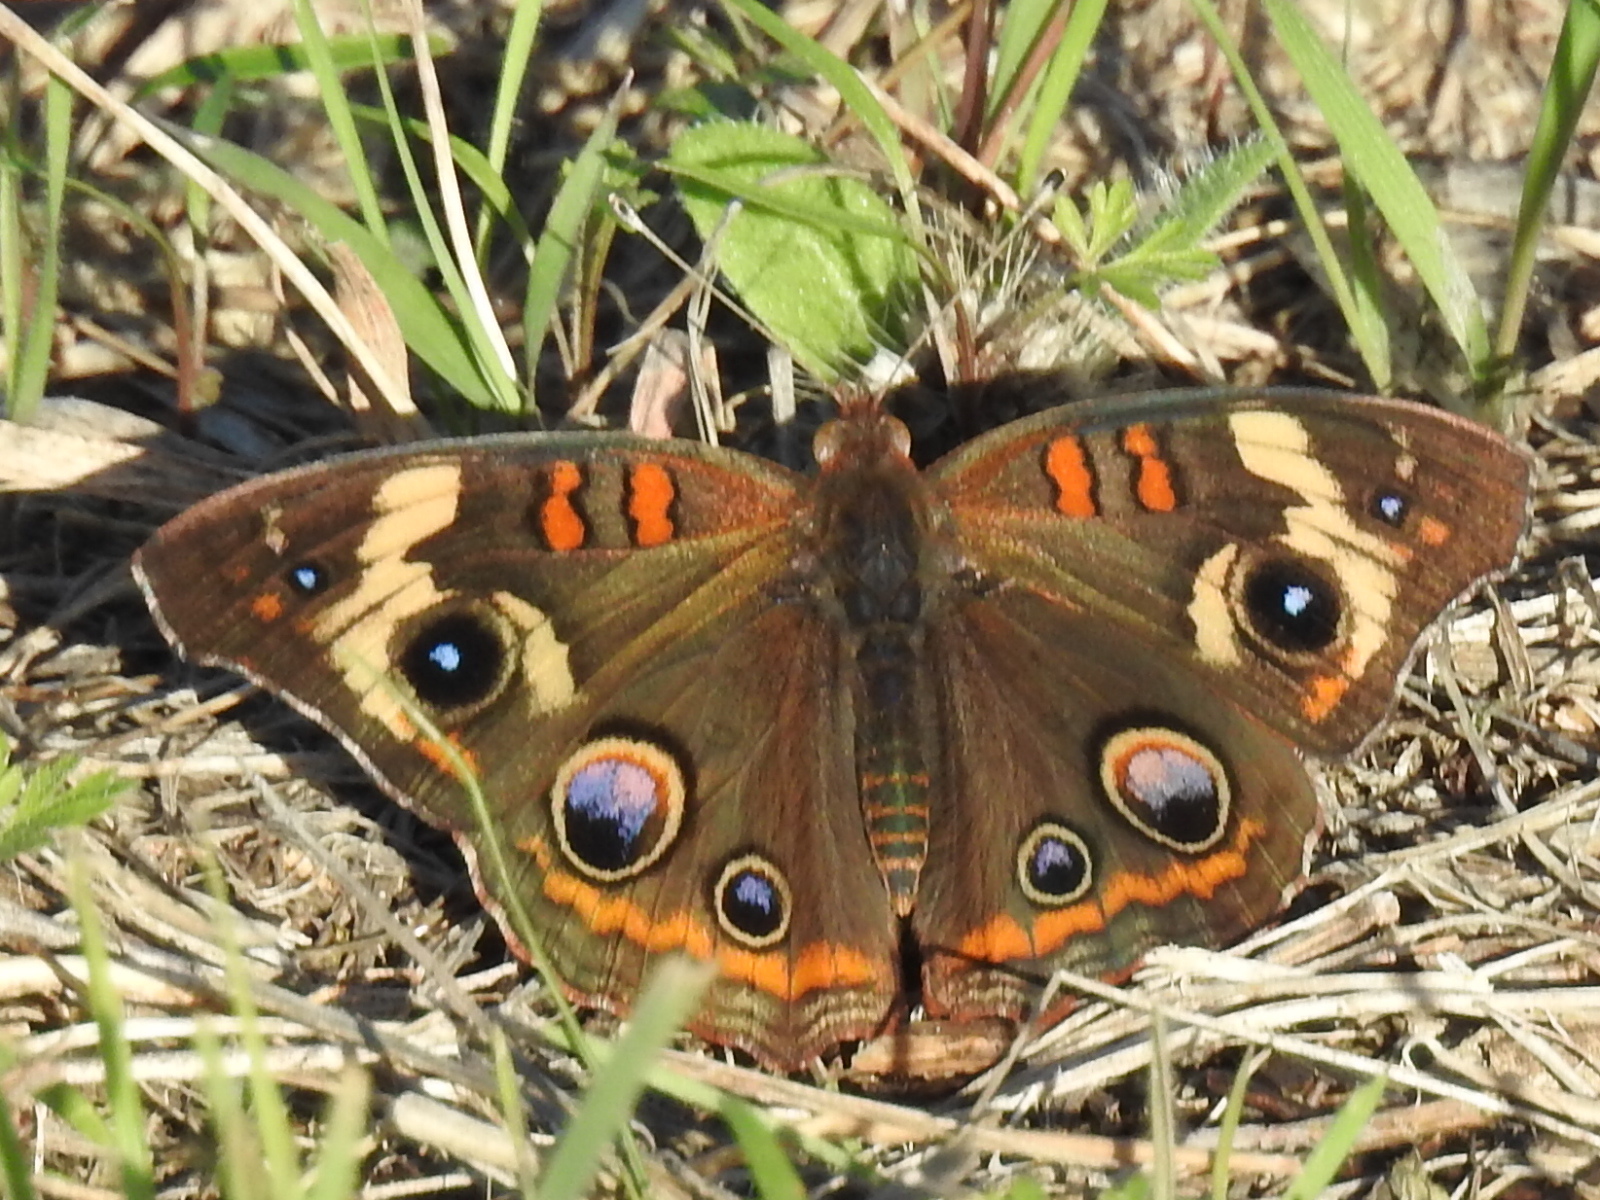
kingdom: Animalia
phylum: Arthropoda
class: Insecta
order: Lepidoptera
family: Nymphalidae
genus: Junonia
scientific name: Junonia coenia
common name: Common buckeye
